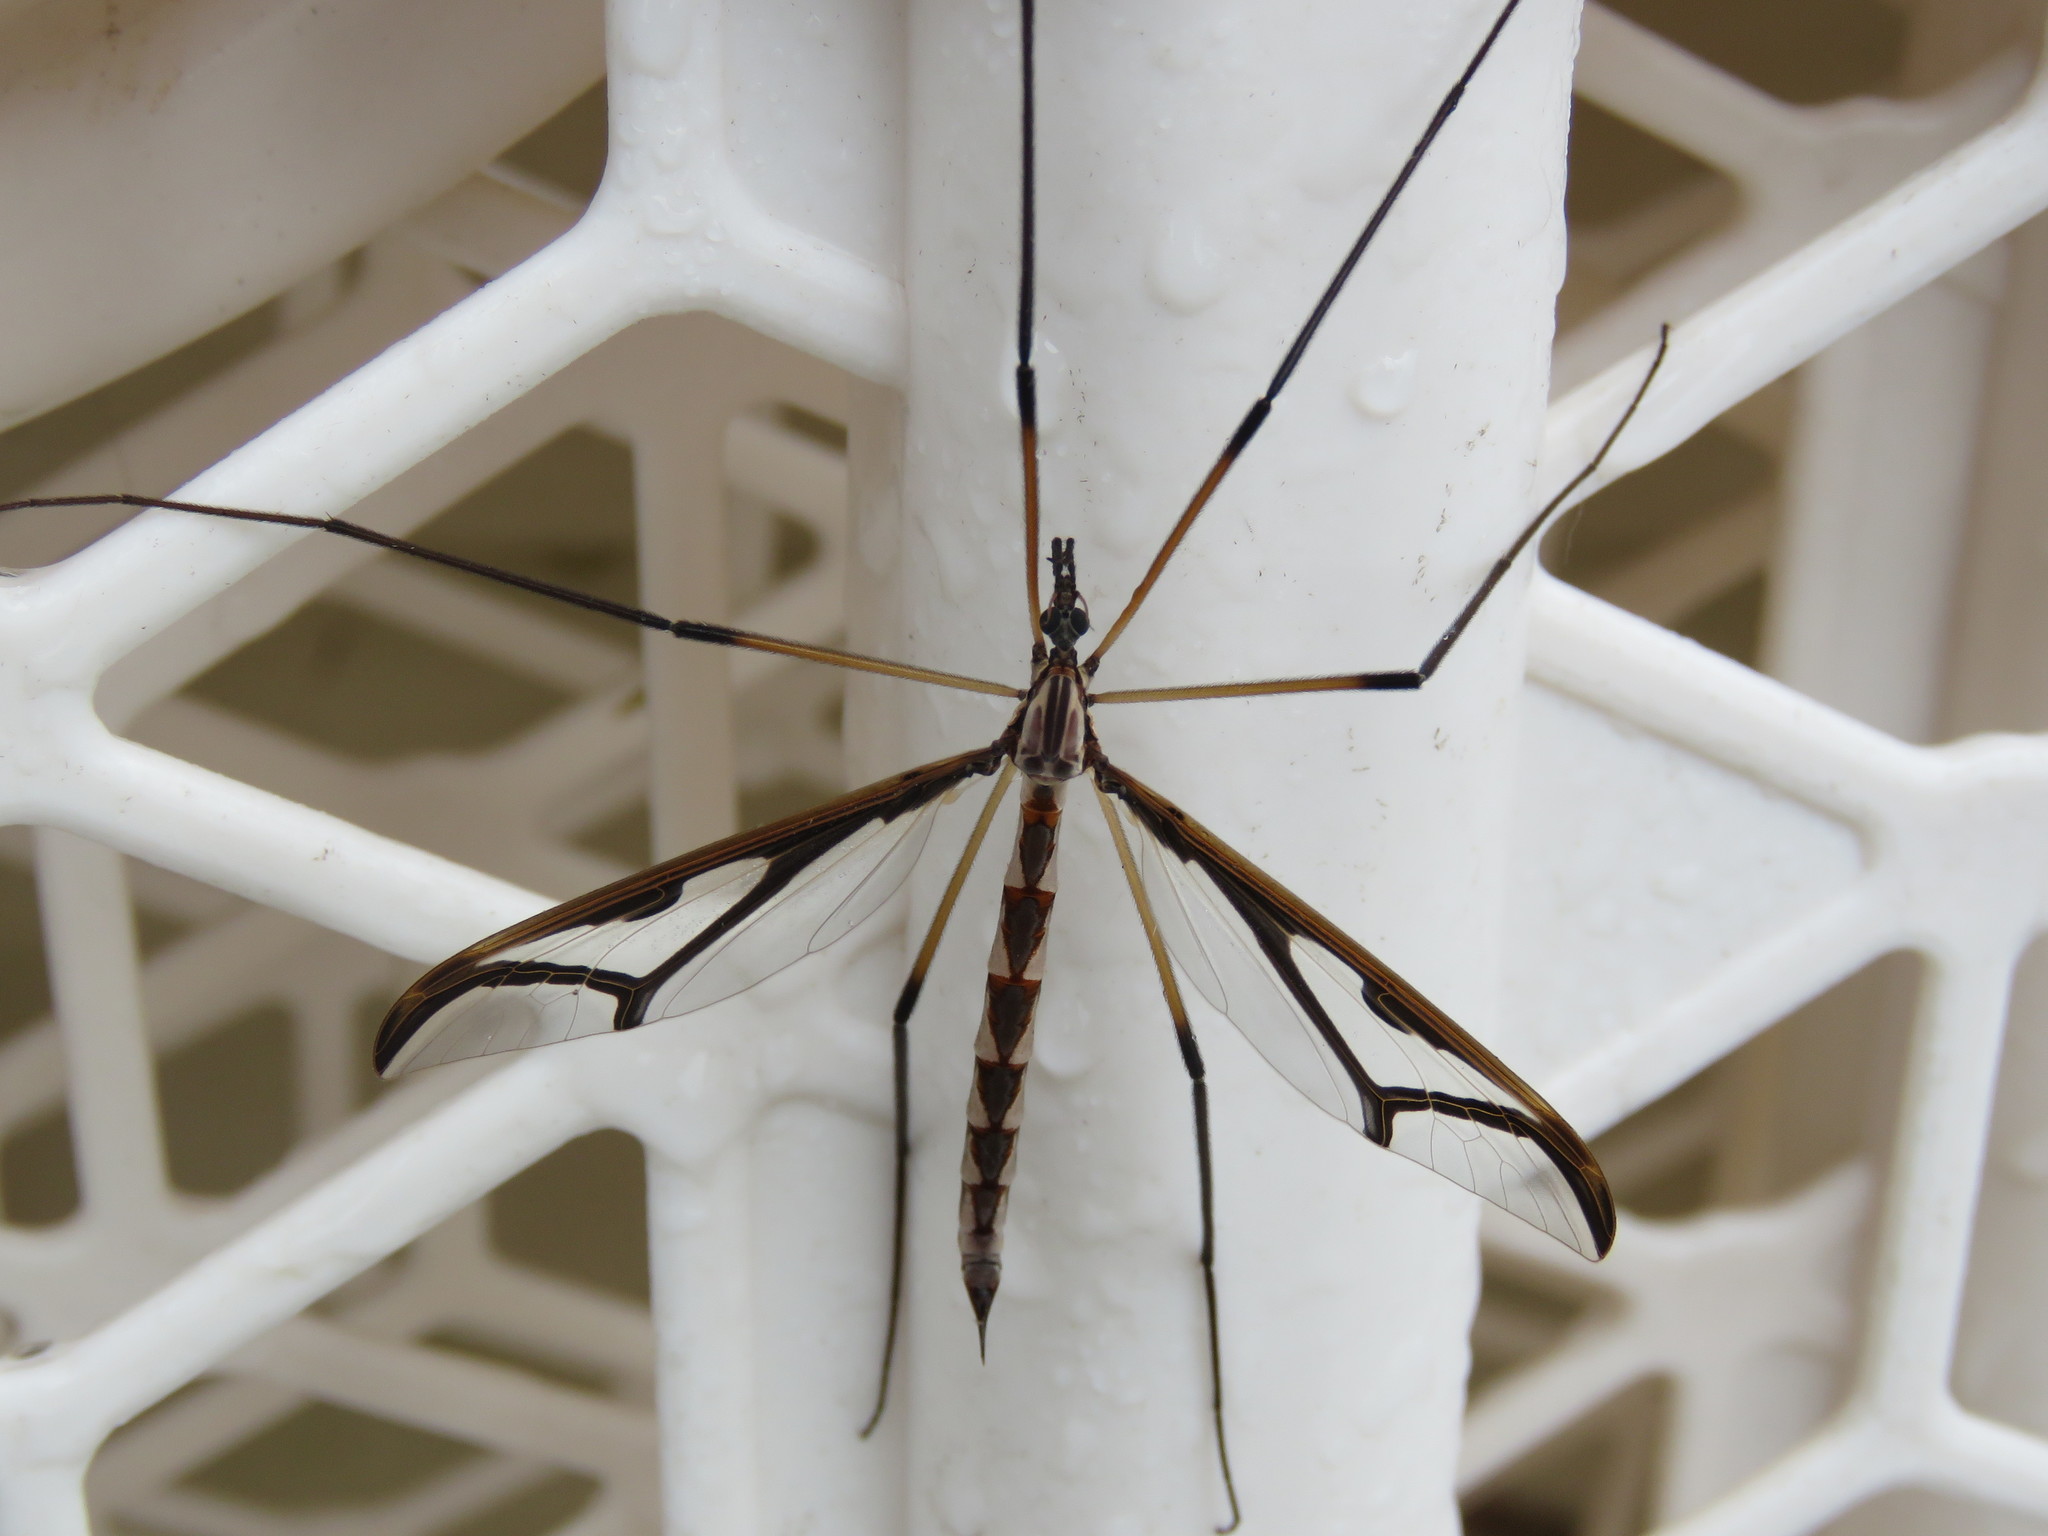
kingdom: Animalia
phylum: Arthropoda
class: Insecta
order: Diptera
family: Pediciidae
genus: Pedicia
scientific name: Pedicia albivitta
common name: Giant eastern crane fly
